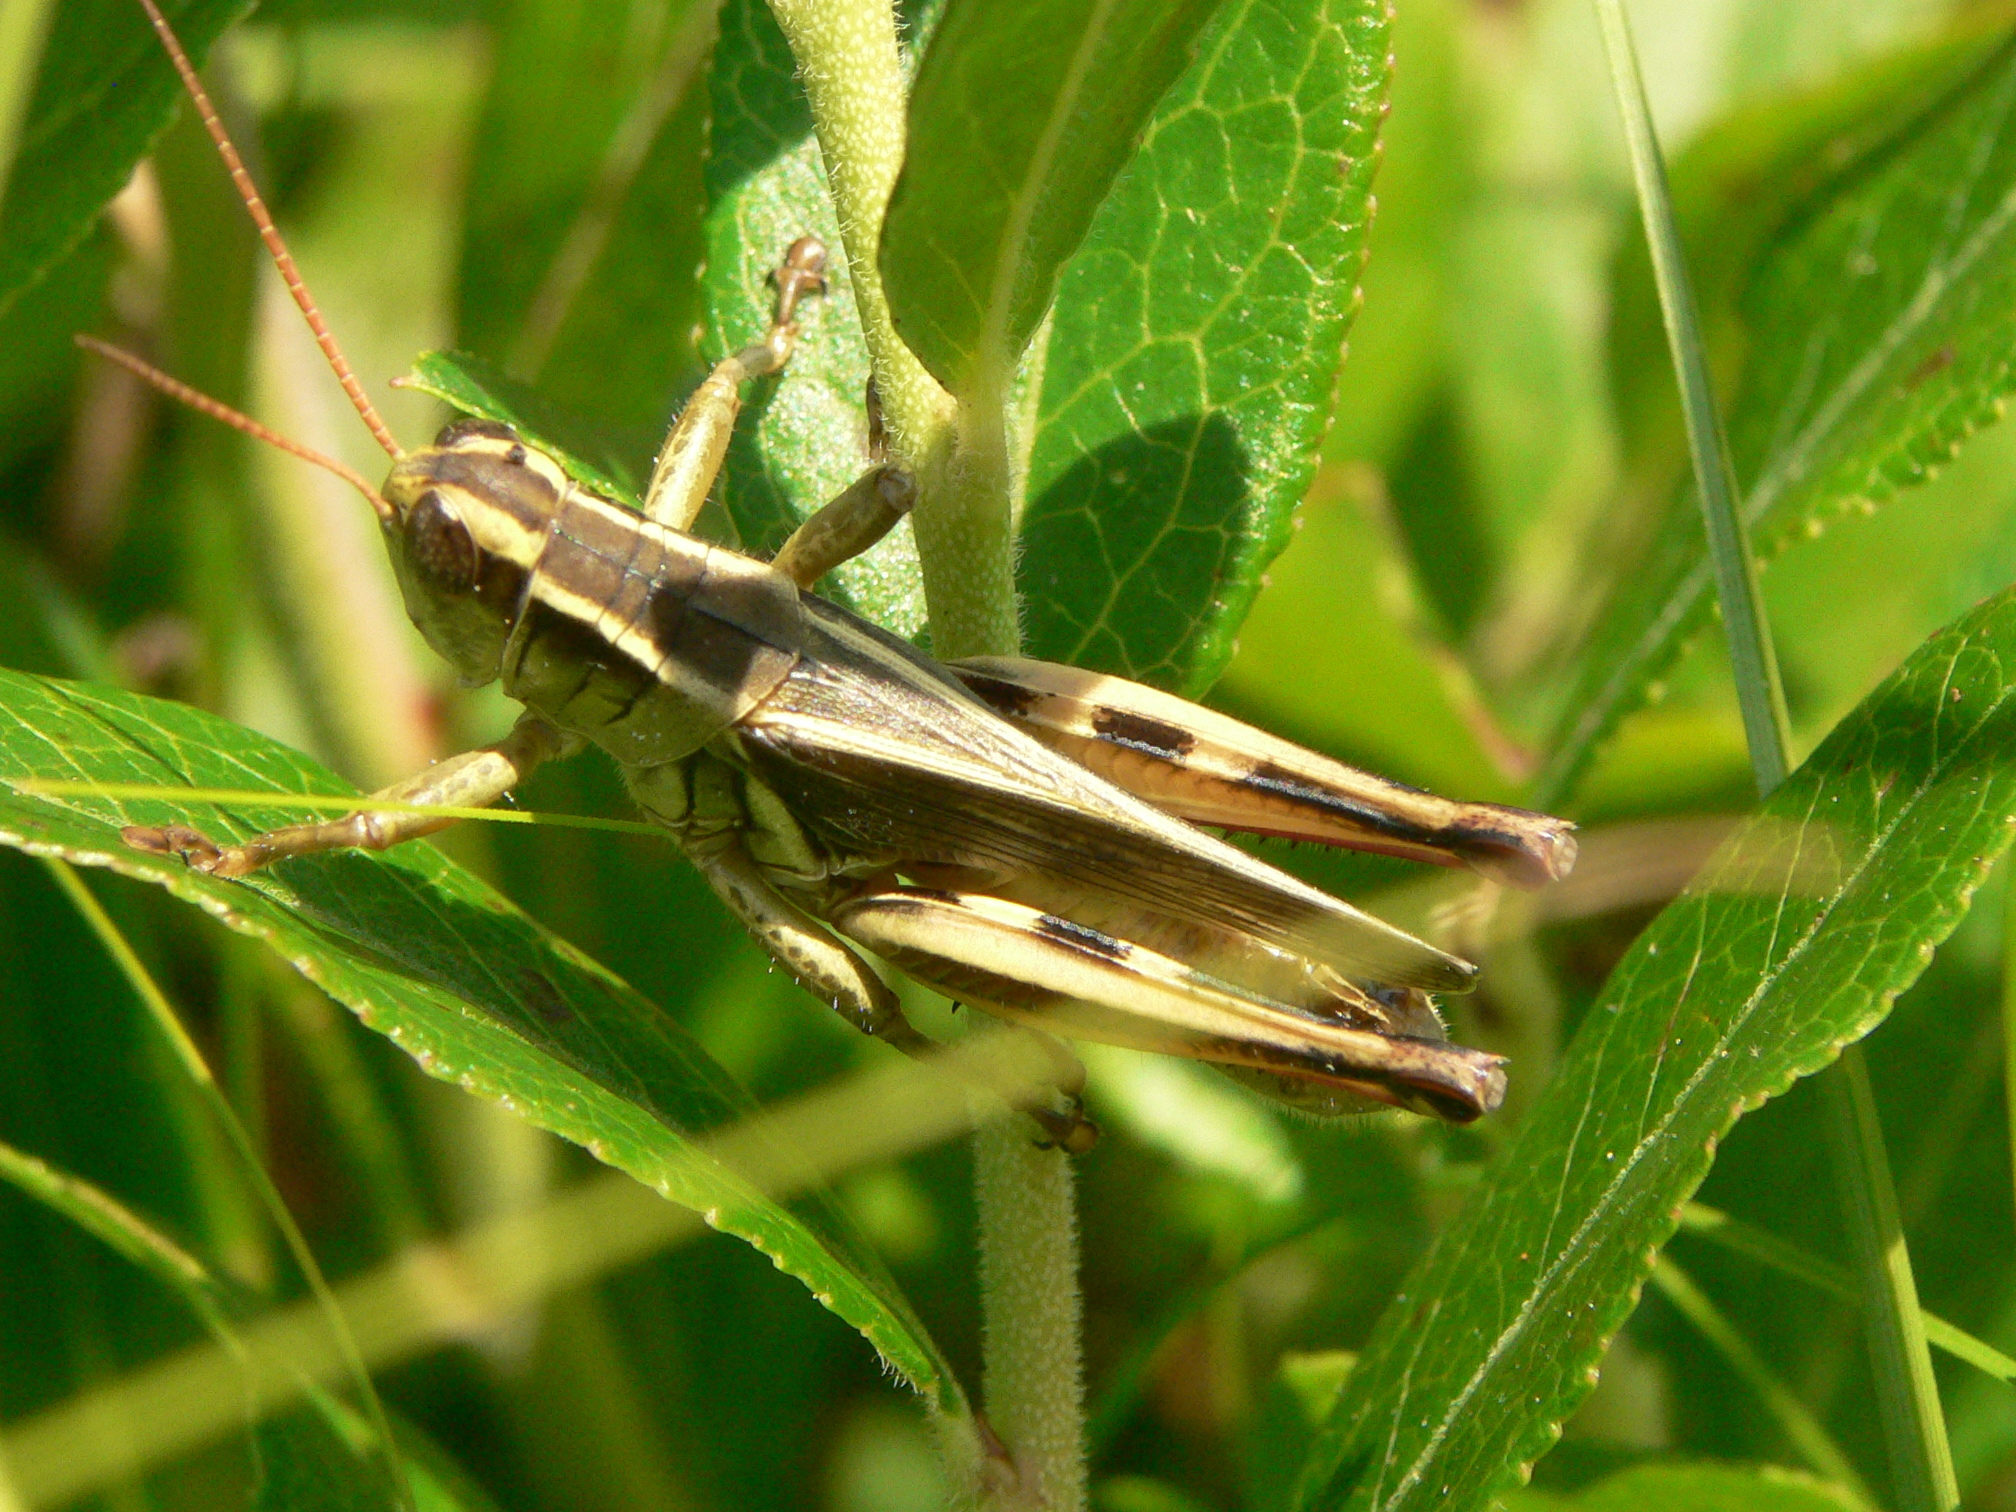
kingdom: Animalia
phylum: Arthropoda
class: Insecta
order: Orthoptera
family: Acrididae
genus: Melanoplus
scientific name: Melanoplus bivittatus
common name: Two-striped grasshopper
